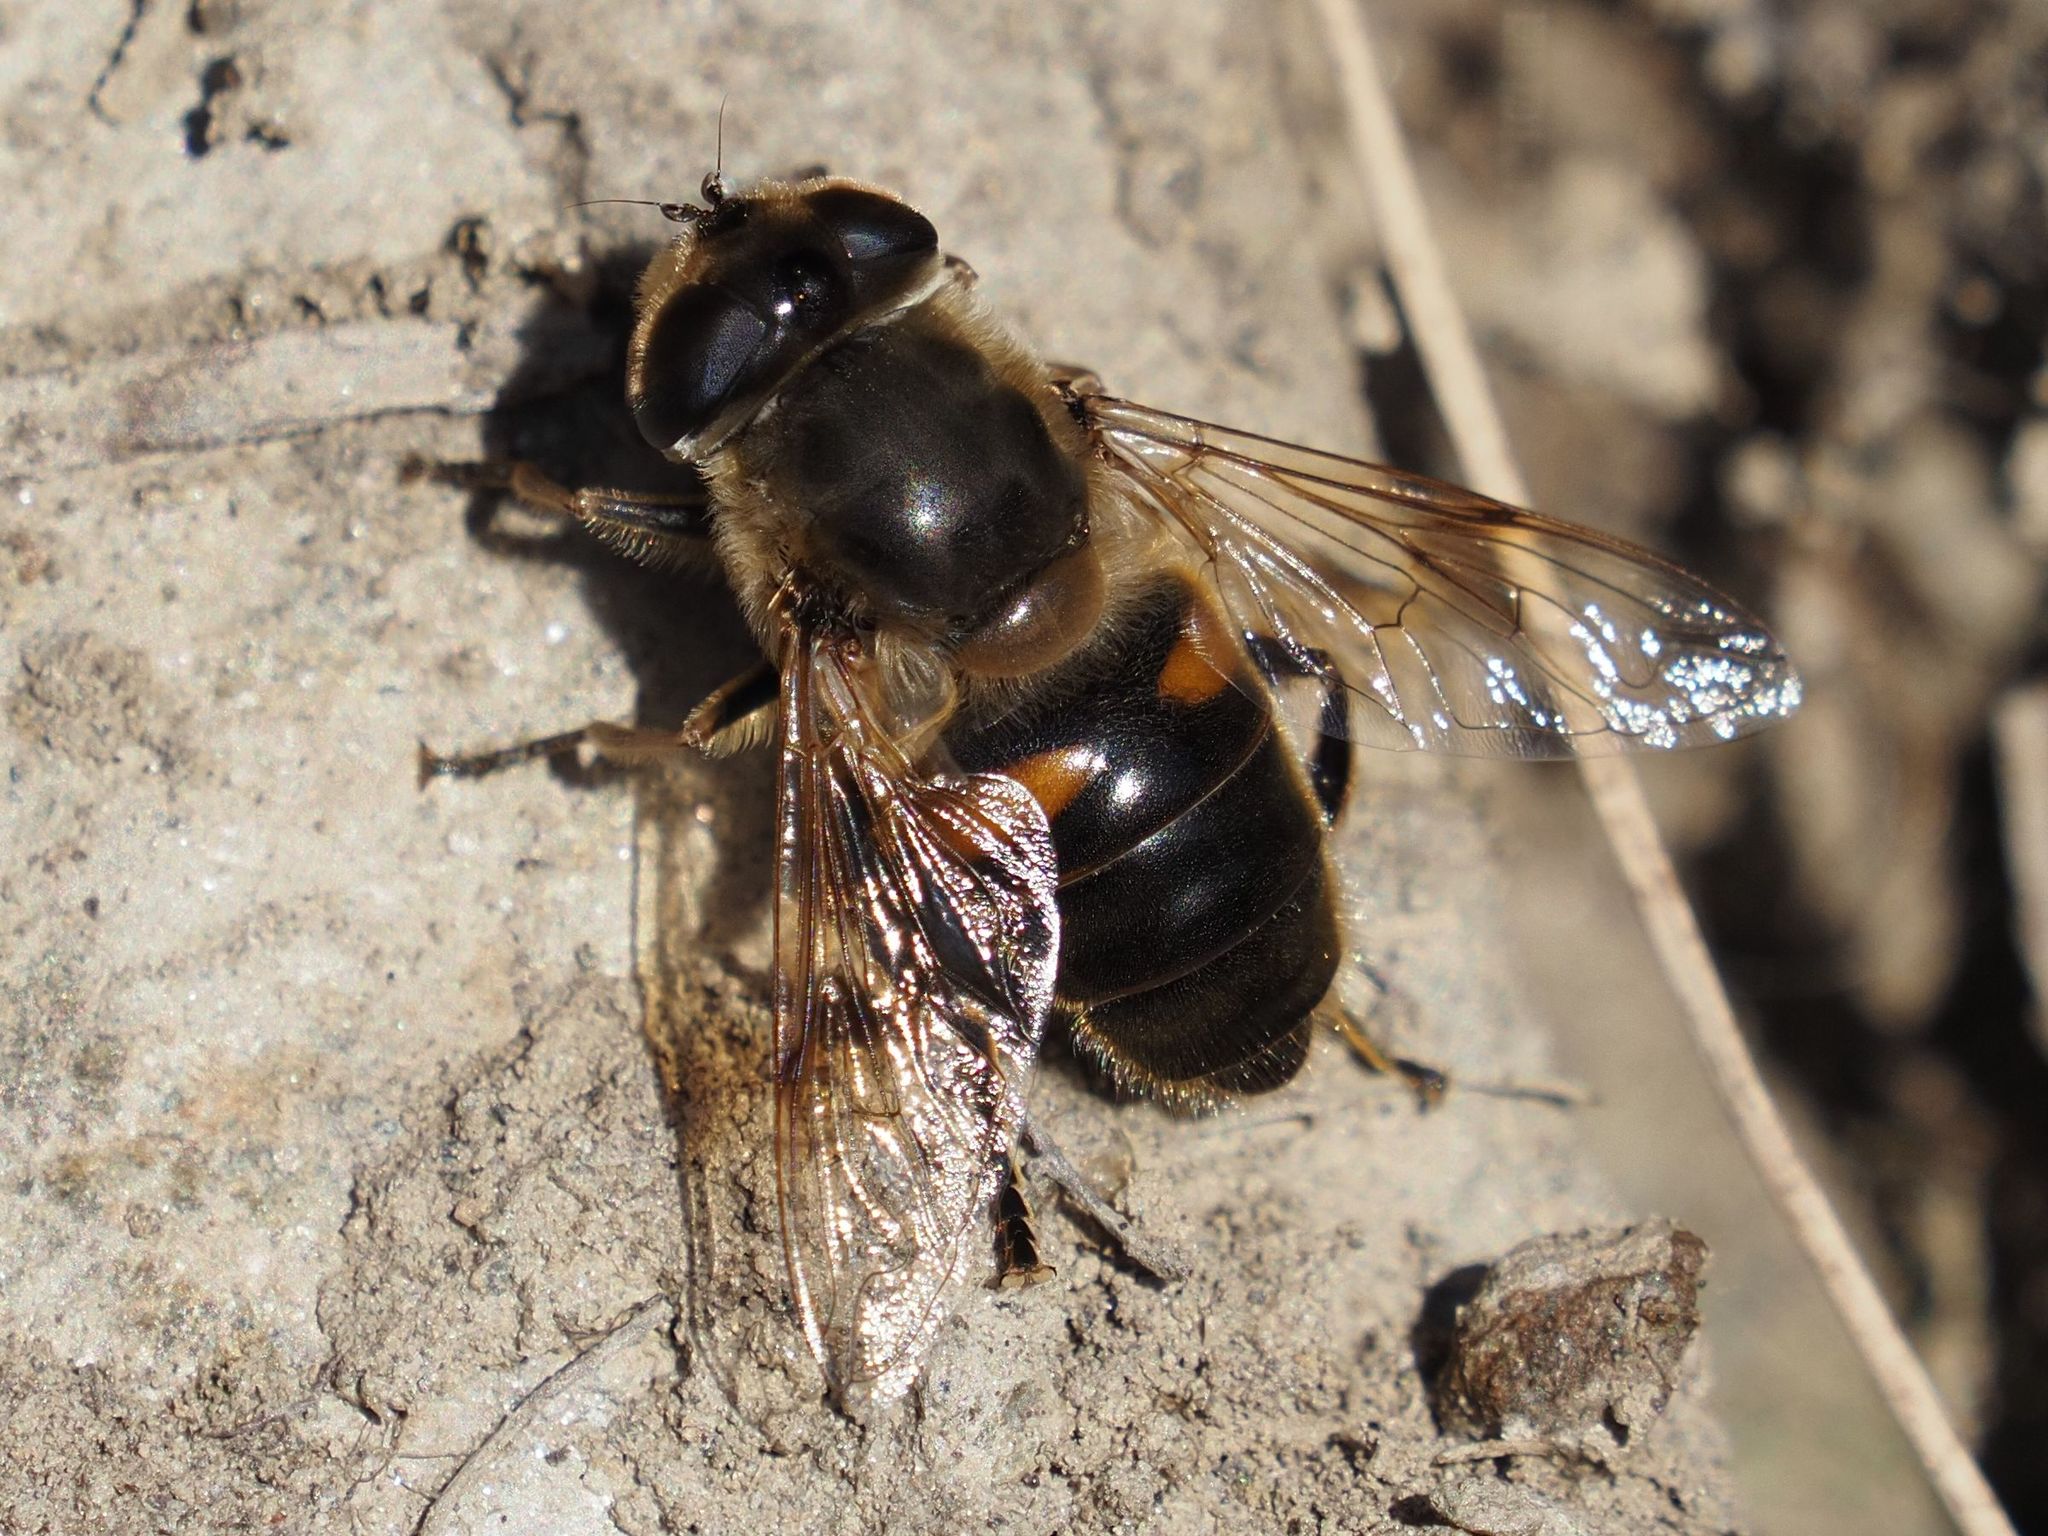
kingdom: Animalia
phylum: Arthropoda
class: Insecta
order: Diptera
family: Syrphidae
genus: Eristalis
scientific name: Eristalis tenax
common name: Drone fly
